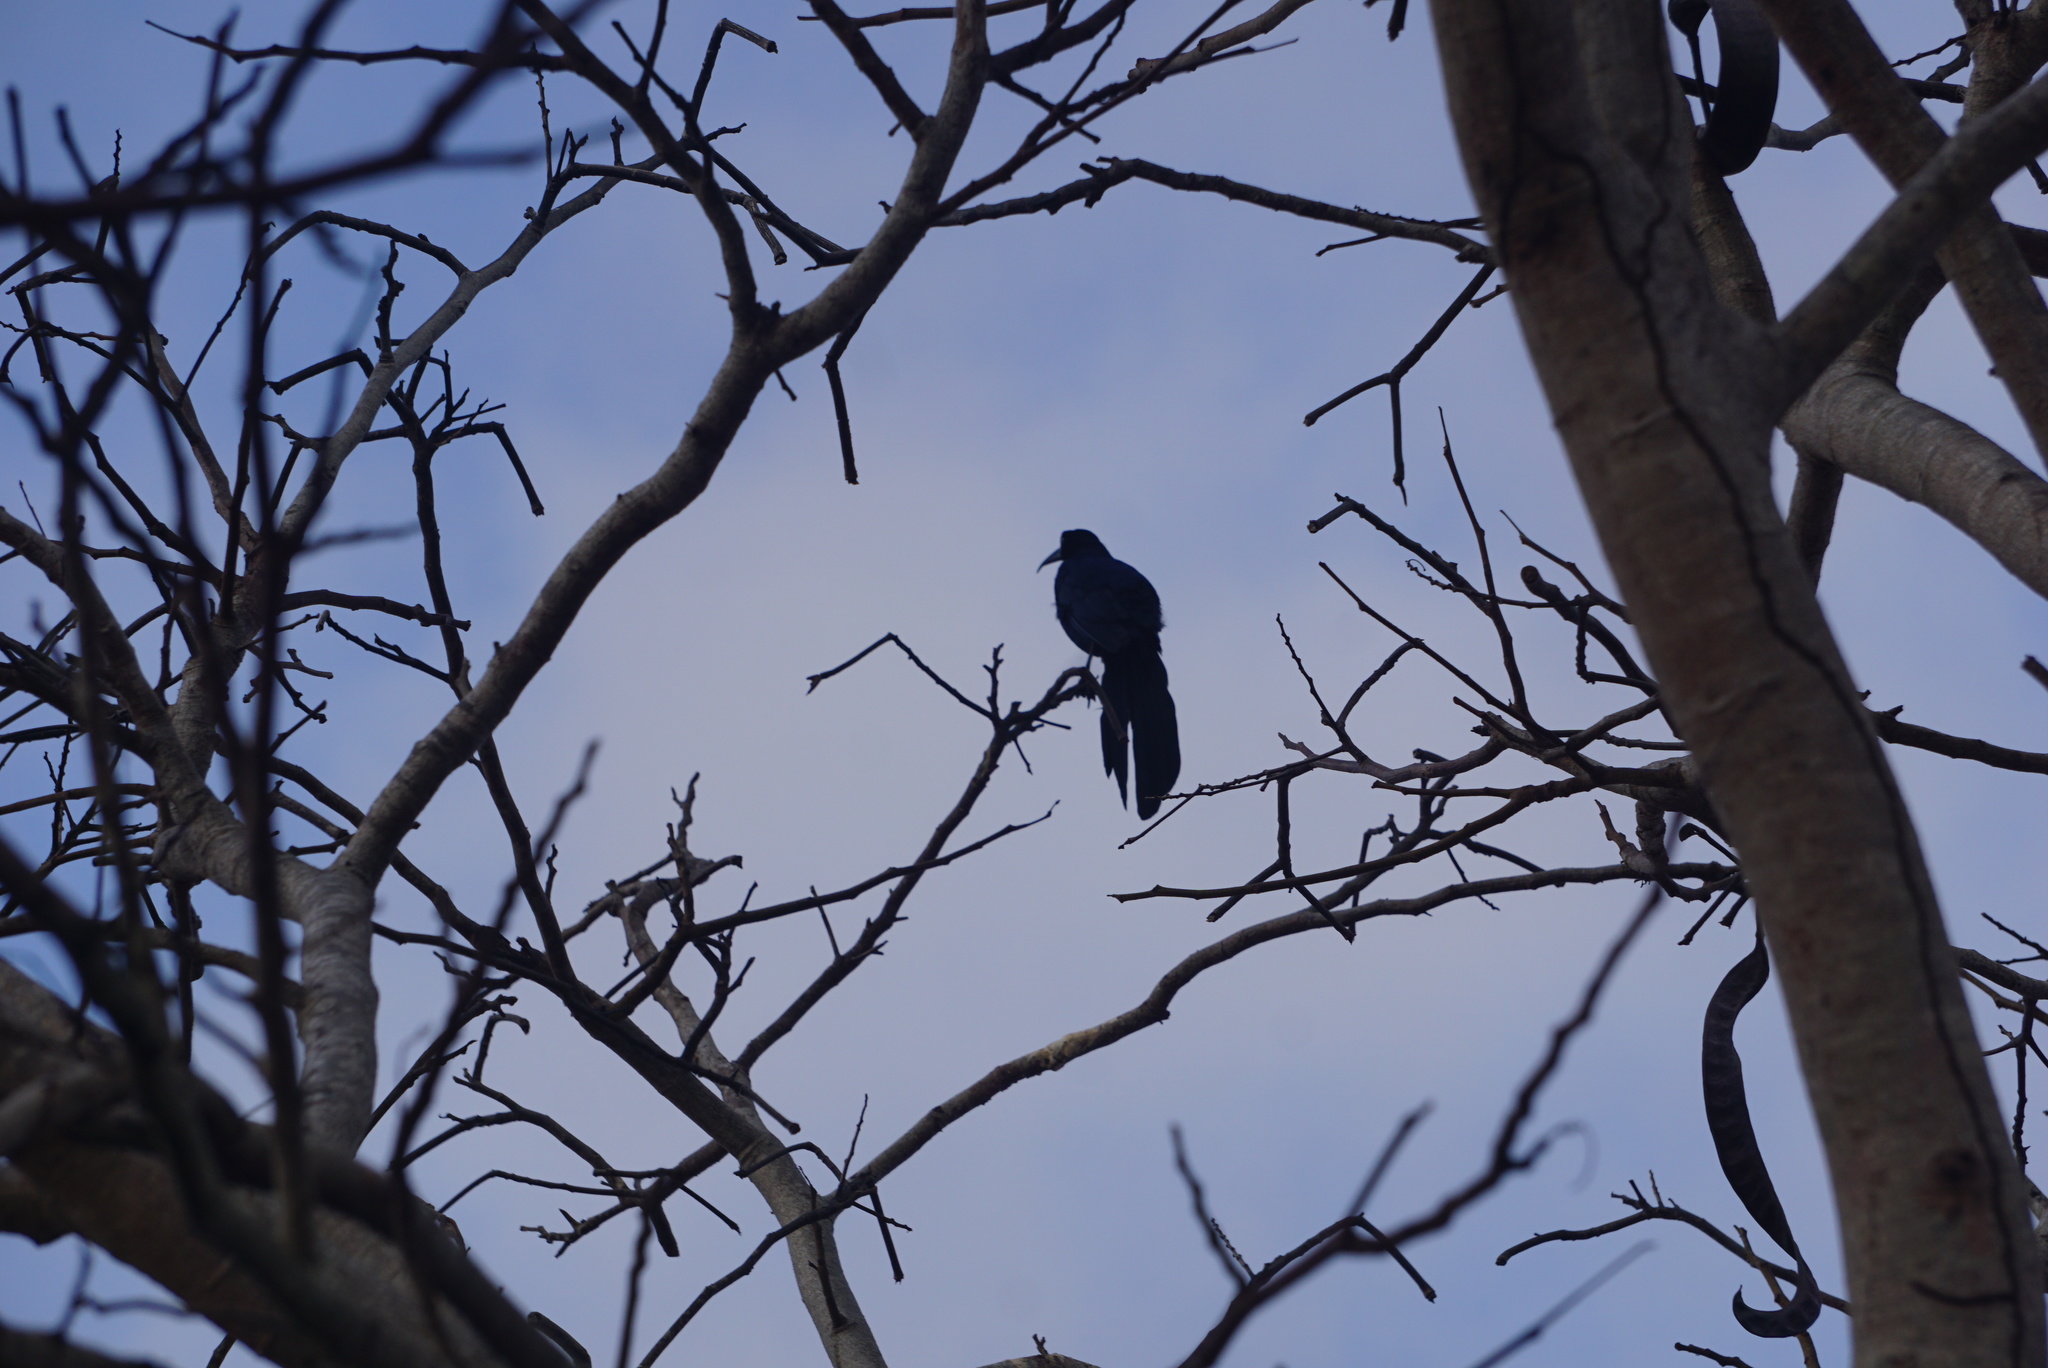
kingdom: Animalia
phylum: Chordata
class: Aves
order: Passeriformes
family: Icteridae
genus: Quiscalus
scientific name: Quiscalus mexicanus
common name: Great-tailed grackle
